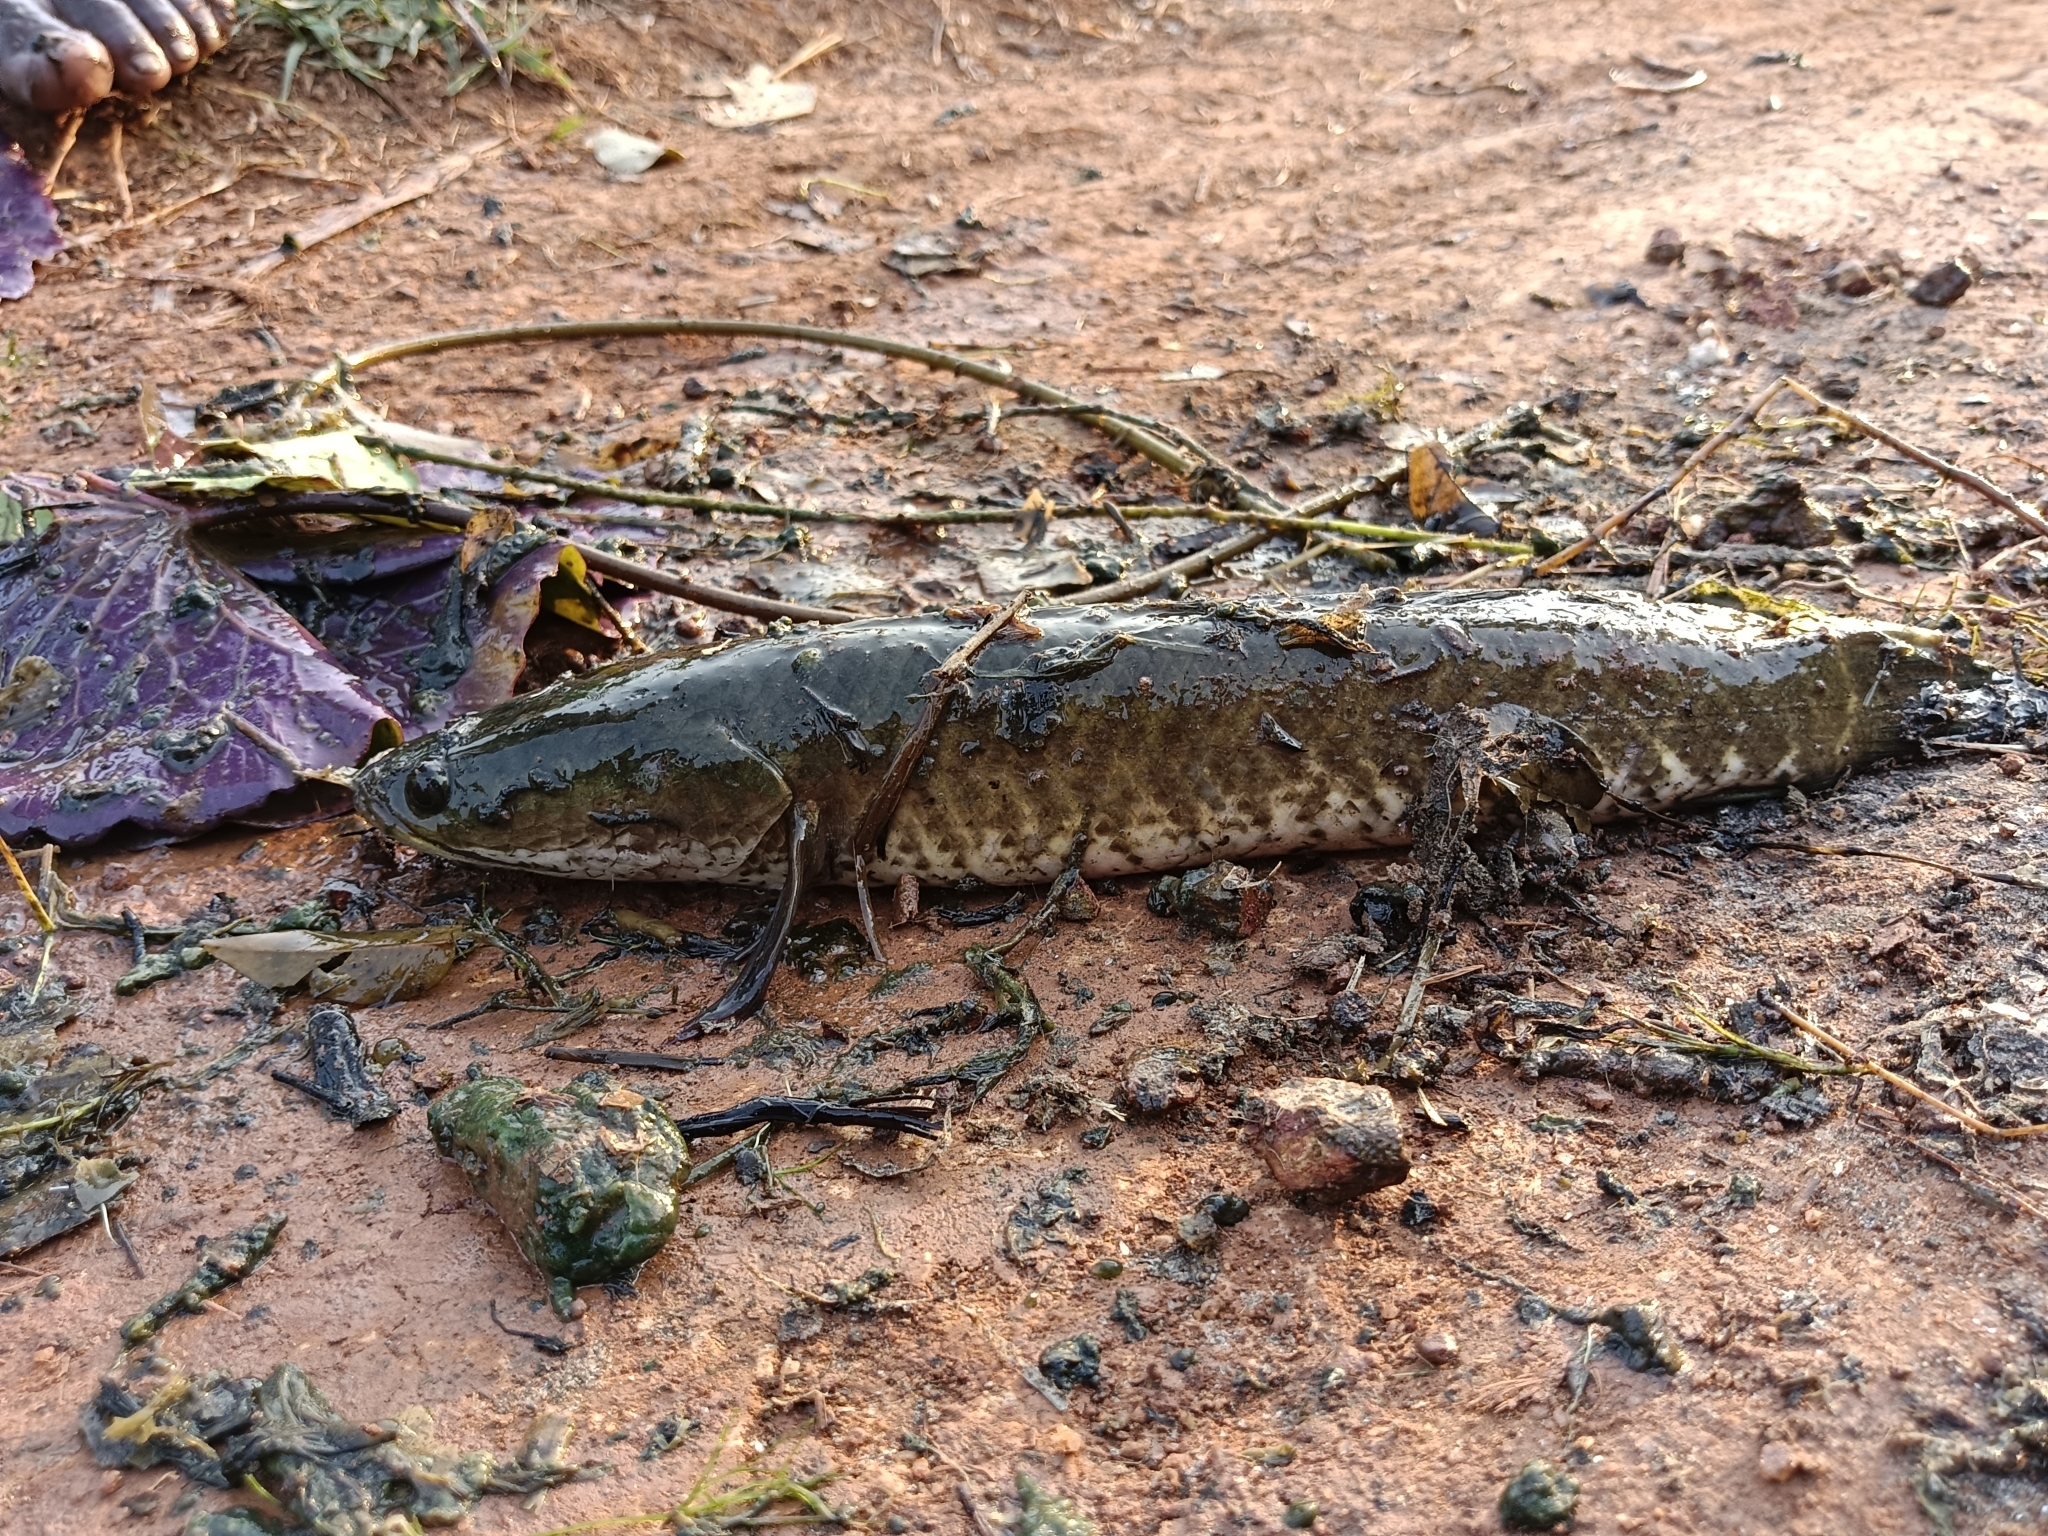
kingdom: Animalia
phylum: Chordata
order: Perciformes
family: Channidae
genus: Channa
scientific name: Channa striata
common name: Striped snakehead
